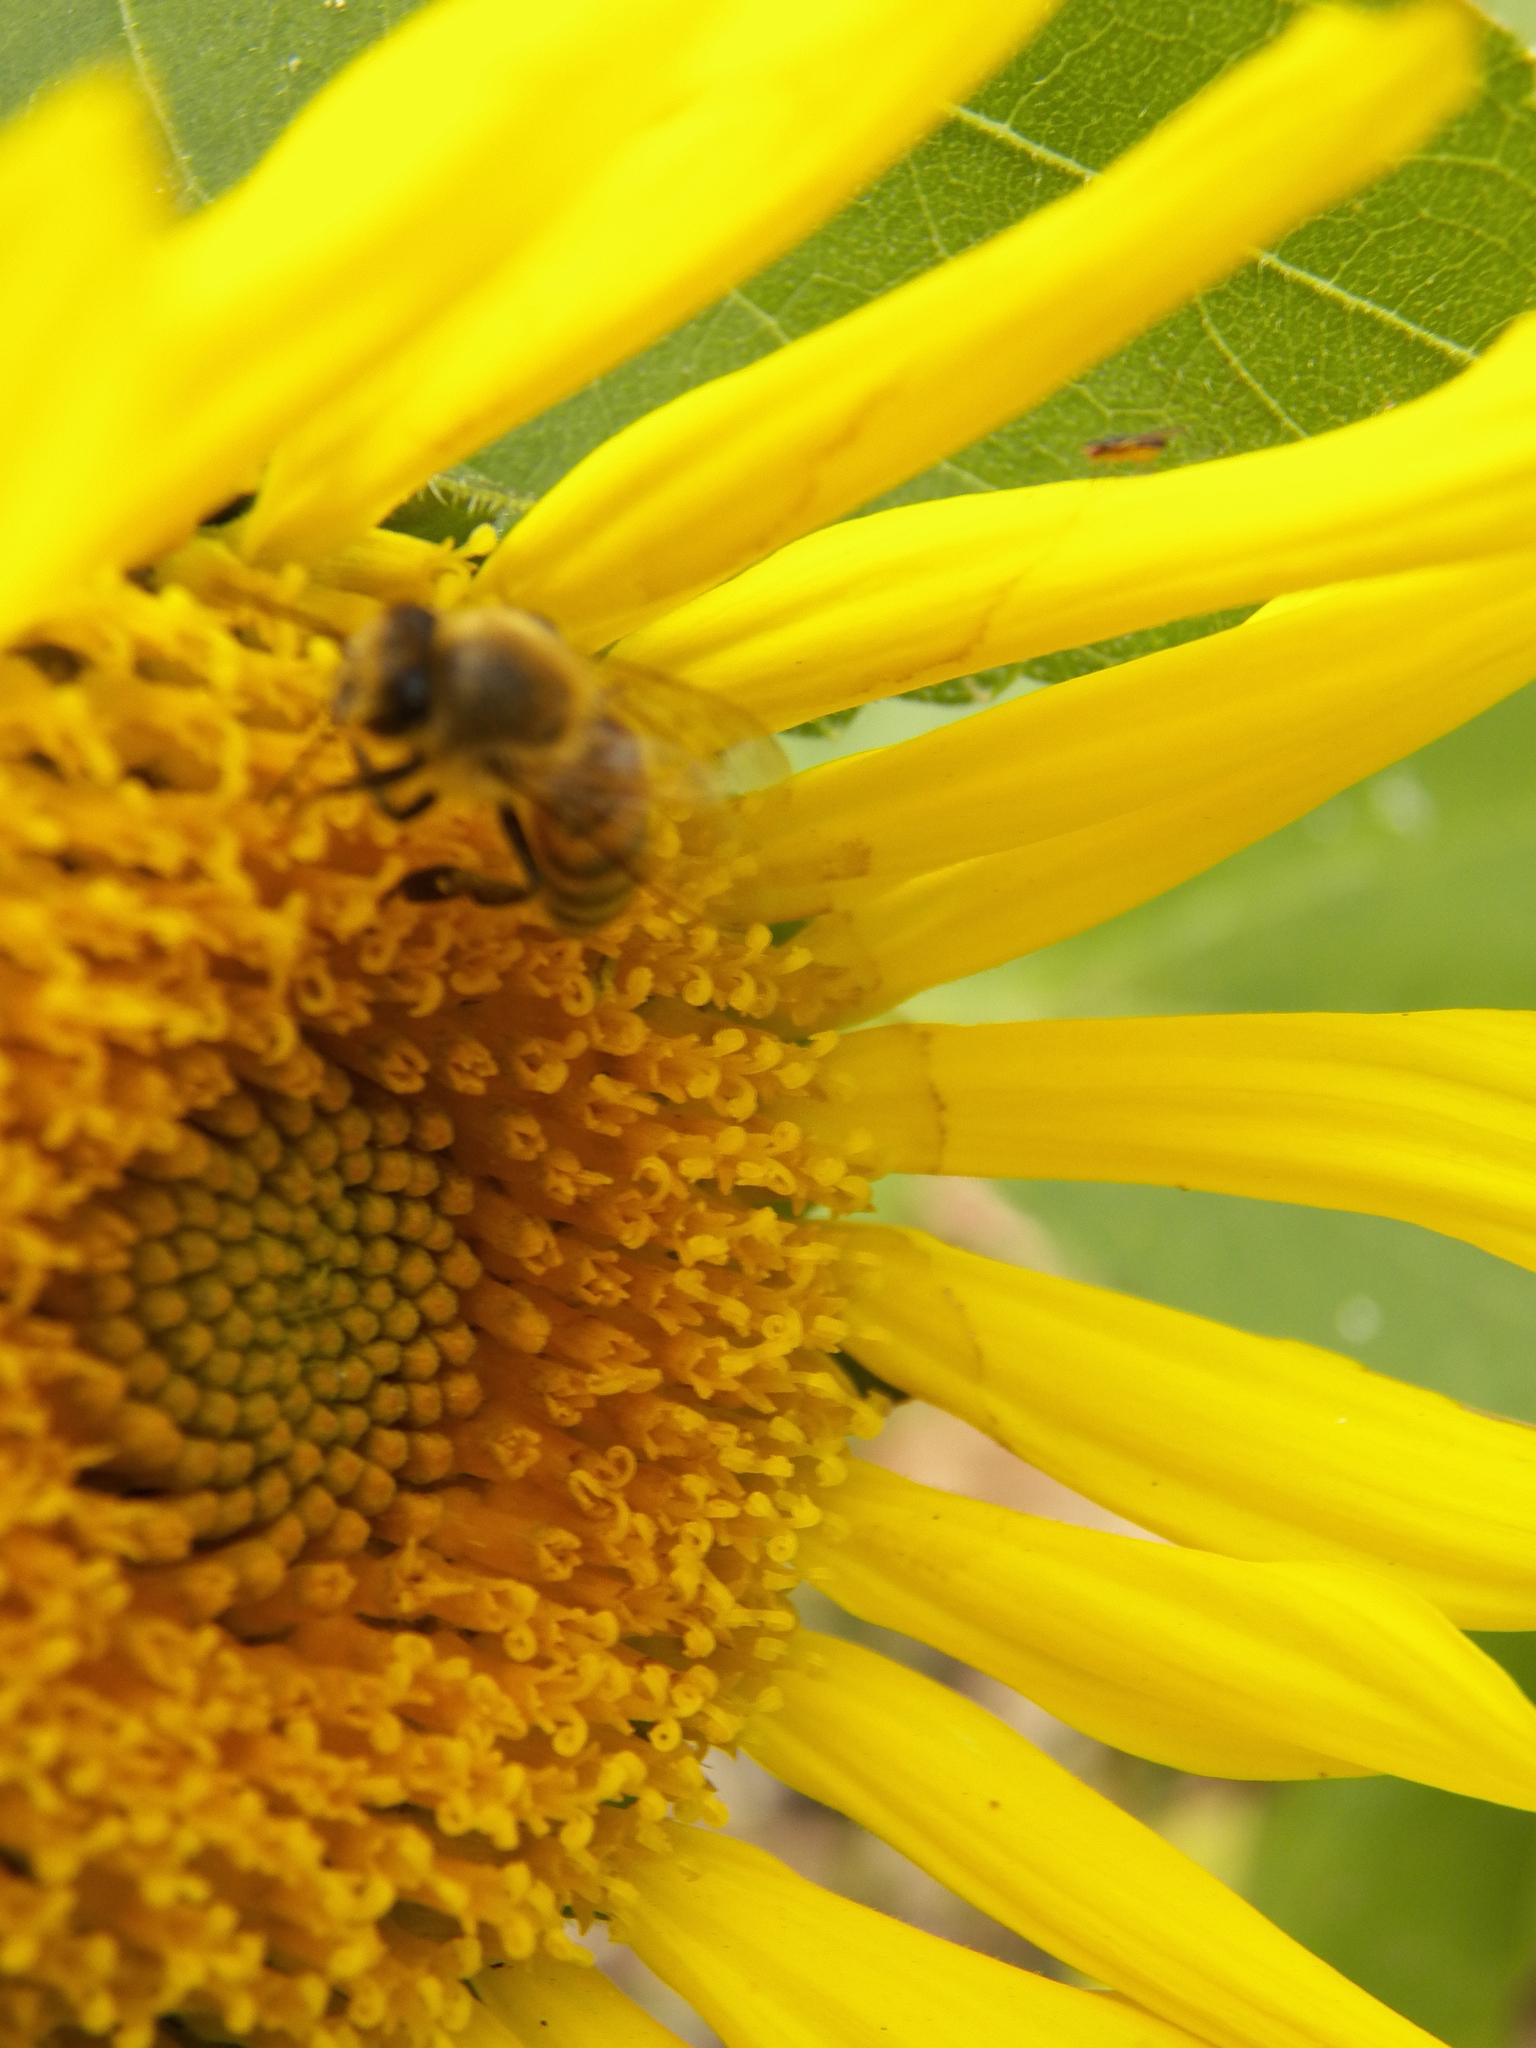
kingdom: Animalia
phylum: Arthropoda
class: Insecta
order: Hymenoptera
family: Apidae
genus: Apis
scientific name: Apis mellifera
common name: Honey bee
